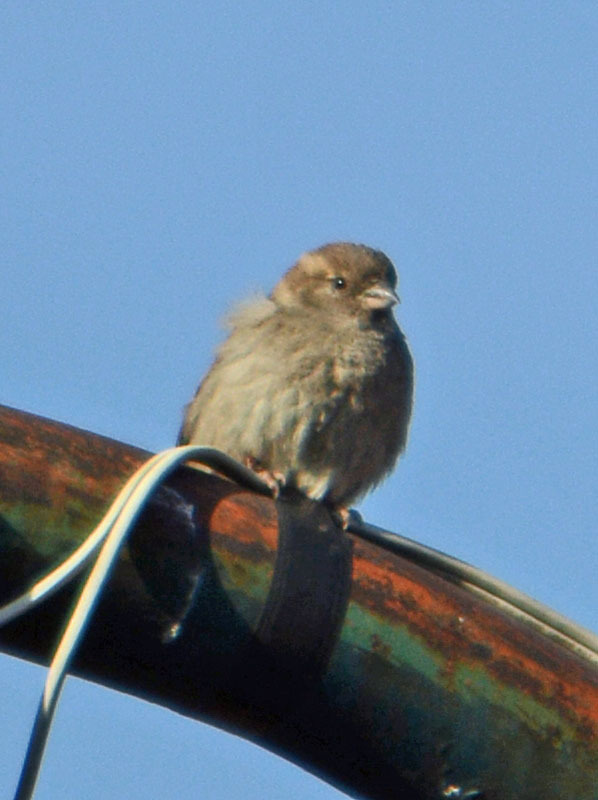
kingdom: Animalia
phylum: Chordata
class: Aves
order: Passeriformes
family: Passeridae
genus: Passer
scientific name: Passer domesticus
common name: House sparrow
